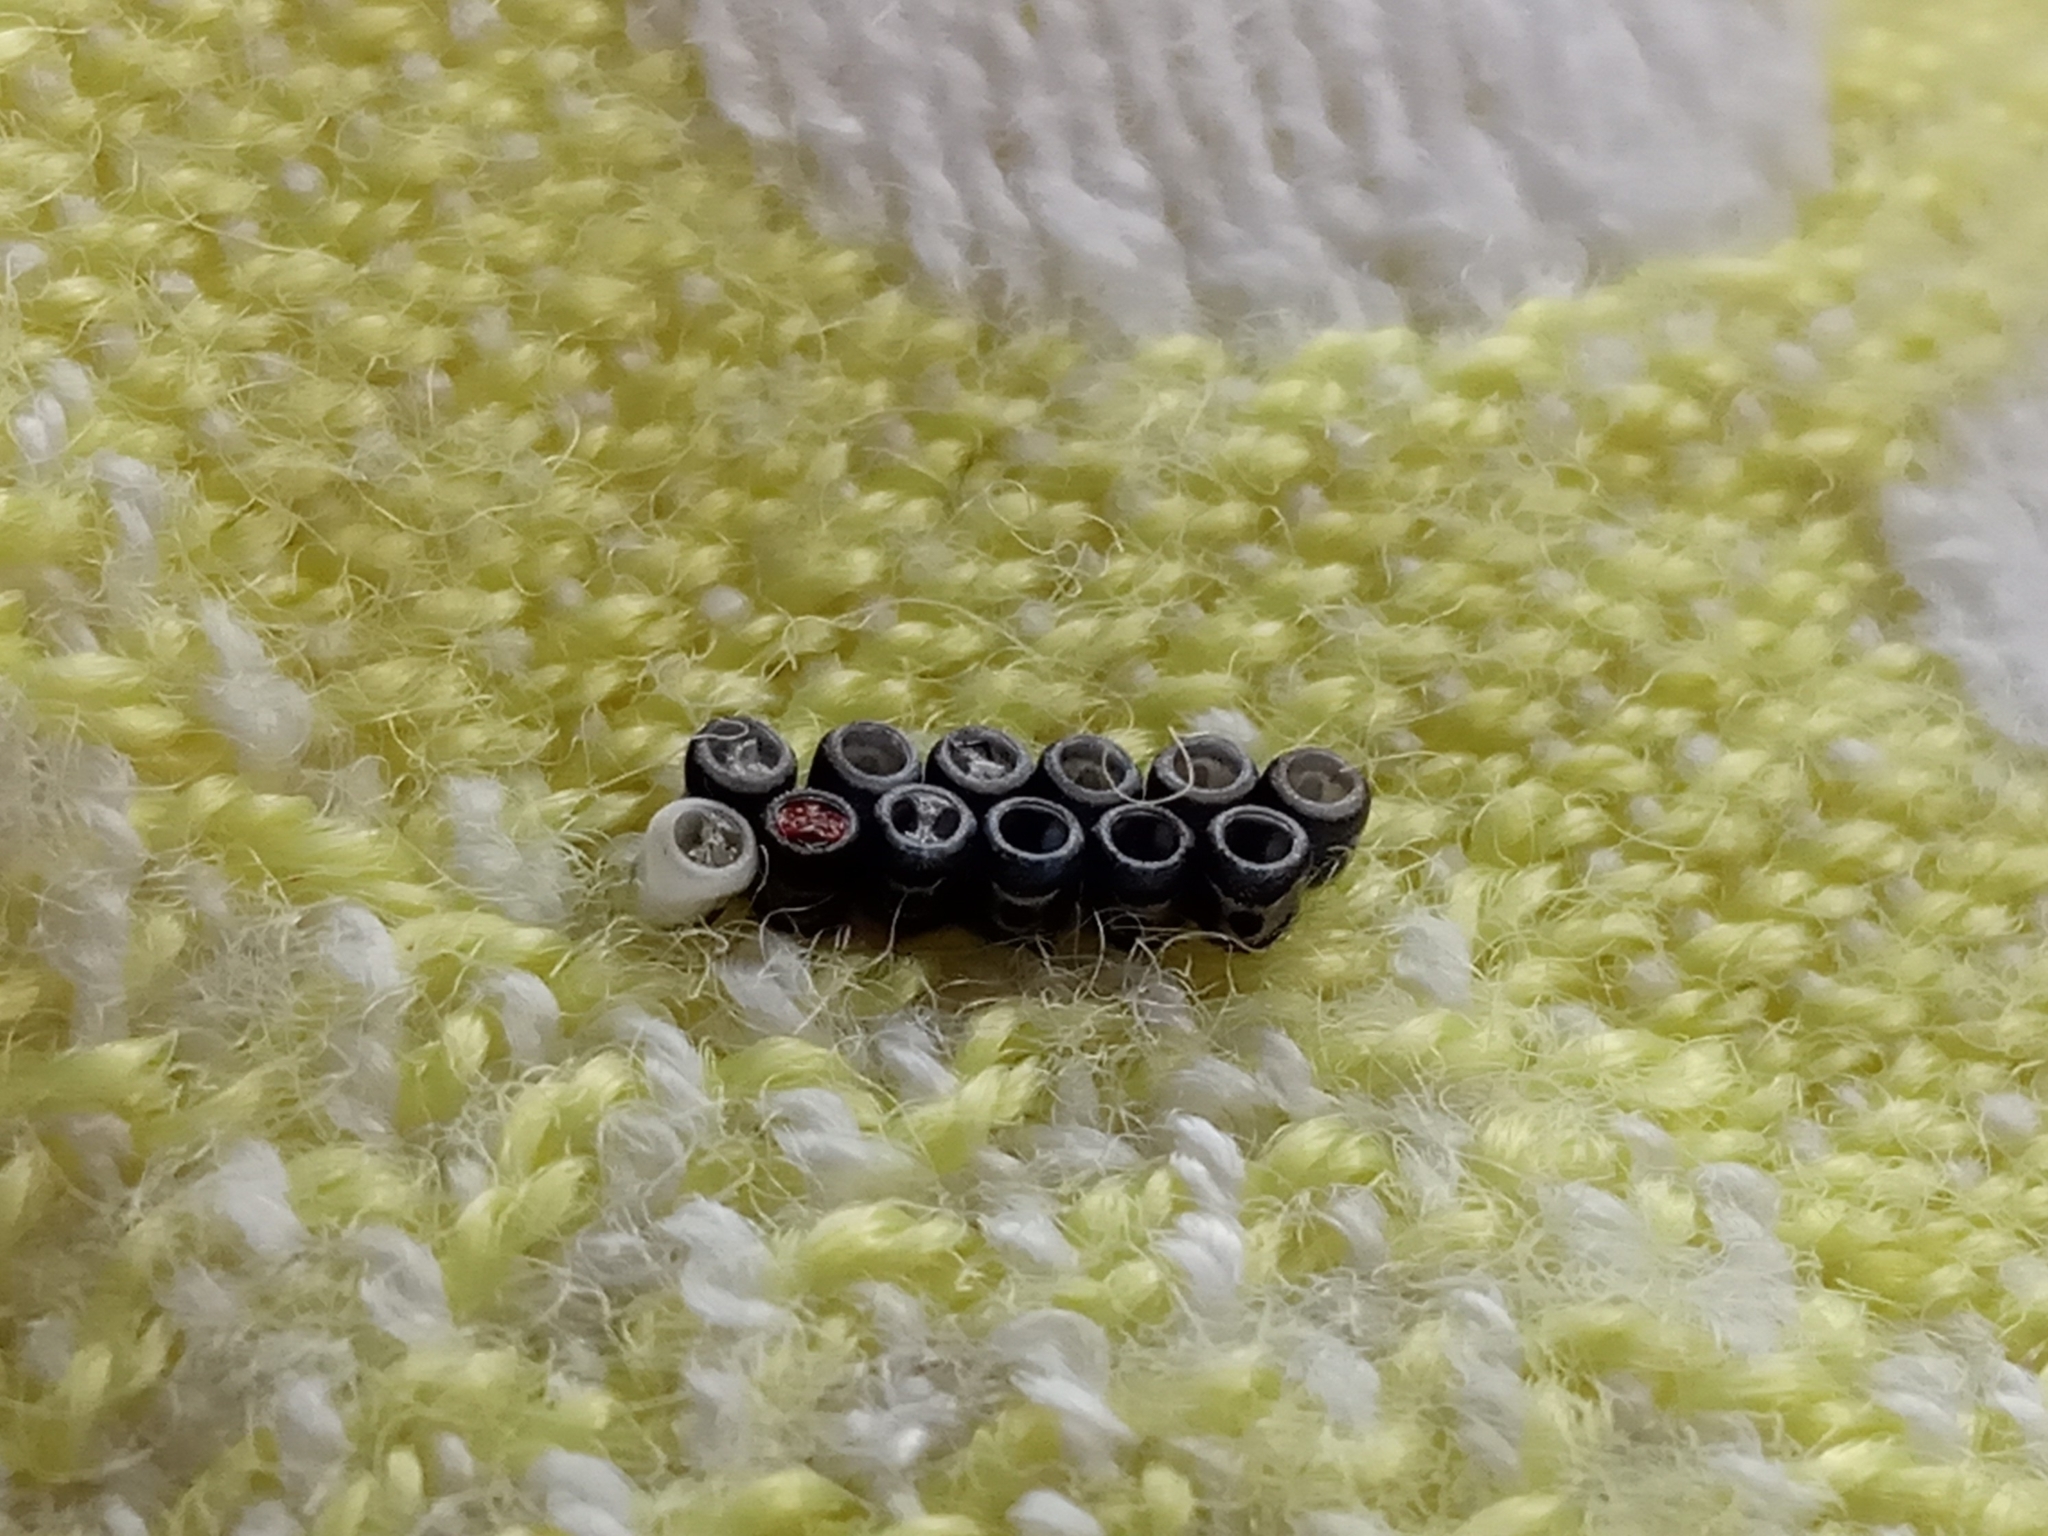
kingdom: Animalia
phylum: Arthropoda
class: Insecta
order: Hemiptera
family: Pentatomidae
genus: Eurydema
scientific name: Eurydema
